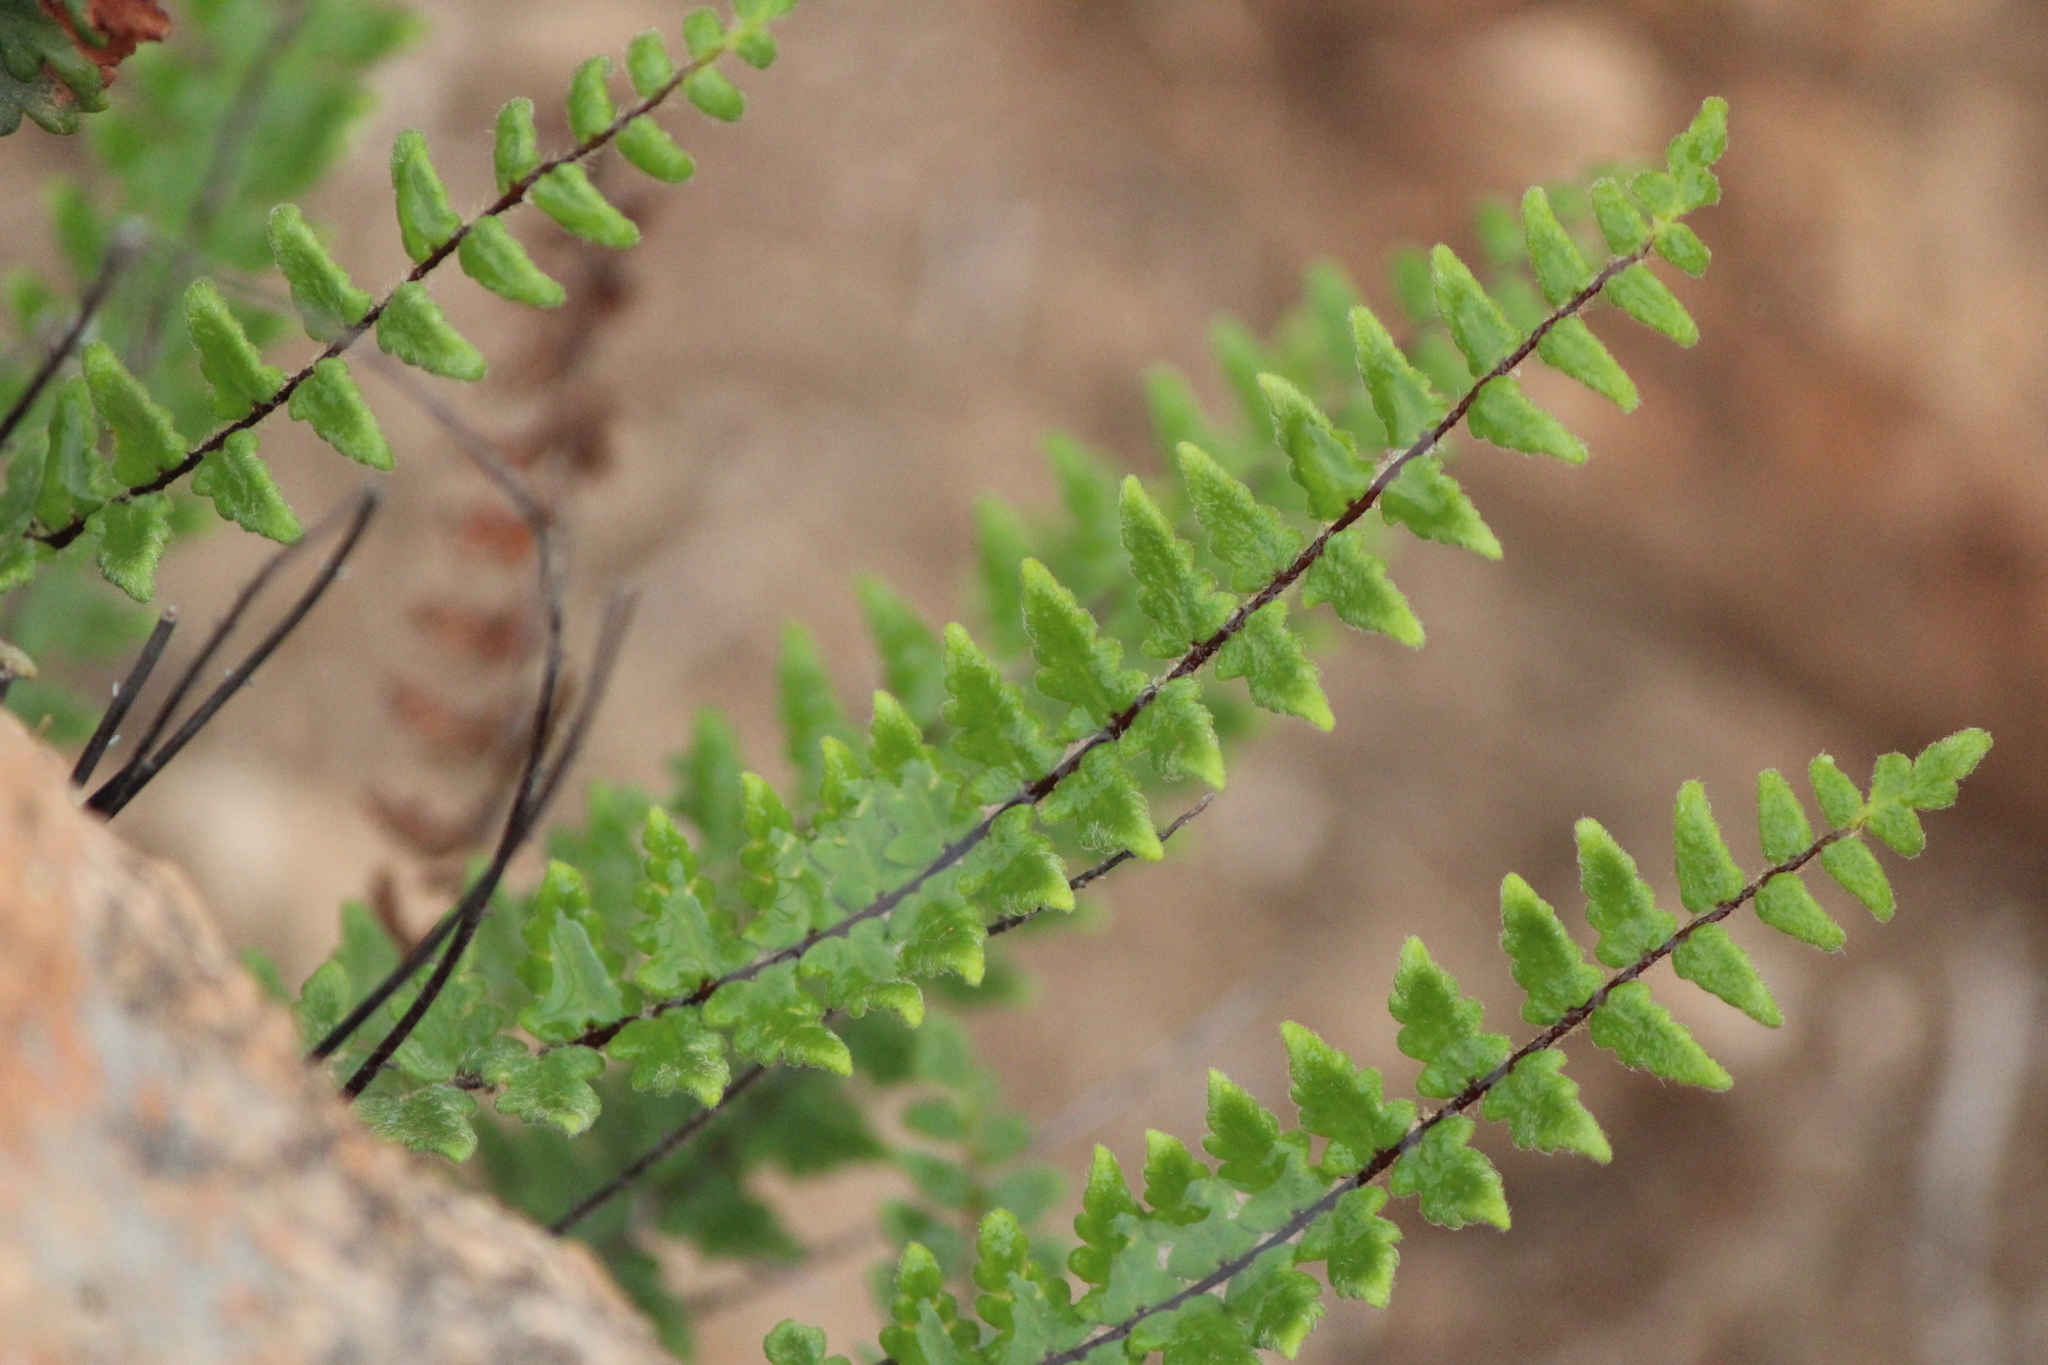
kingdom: Plantae
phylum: Tracheophyta
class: Polypodiopsida
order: Polypodiales
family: Pteridaceae
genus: Myriopteris
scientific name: Myriopteris aurea
